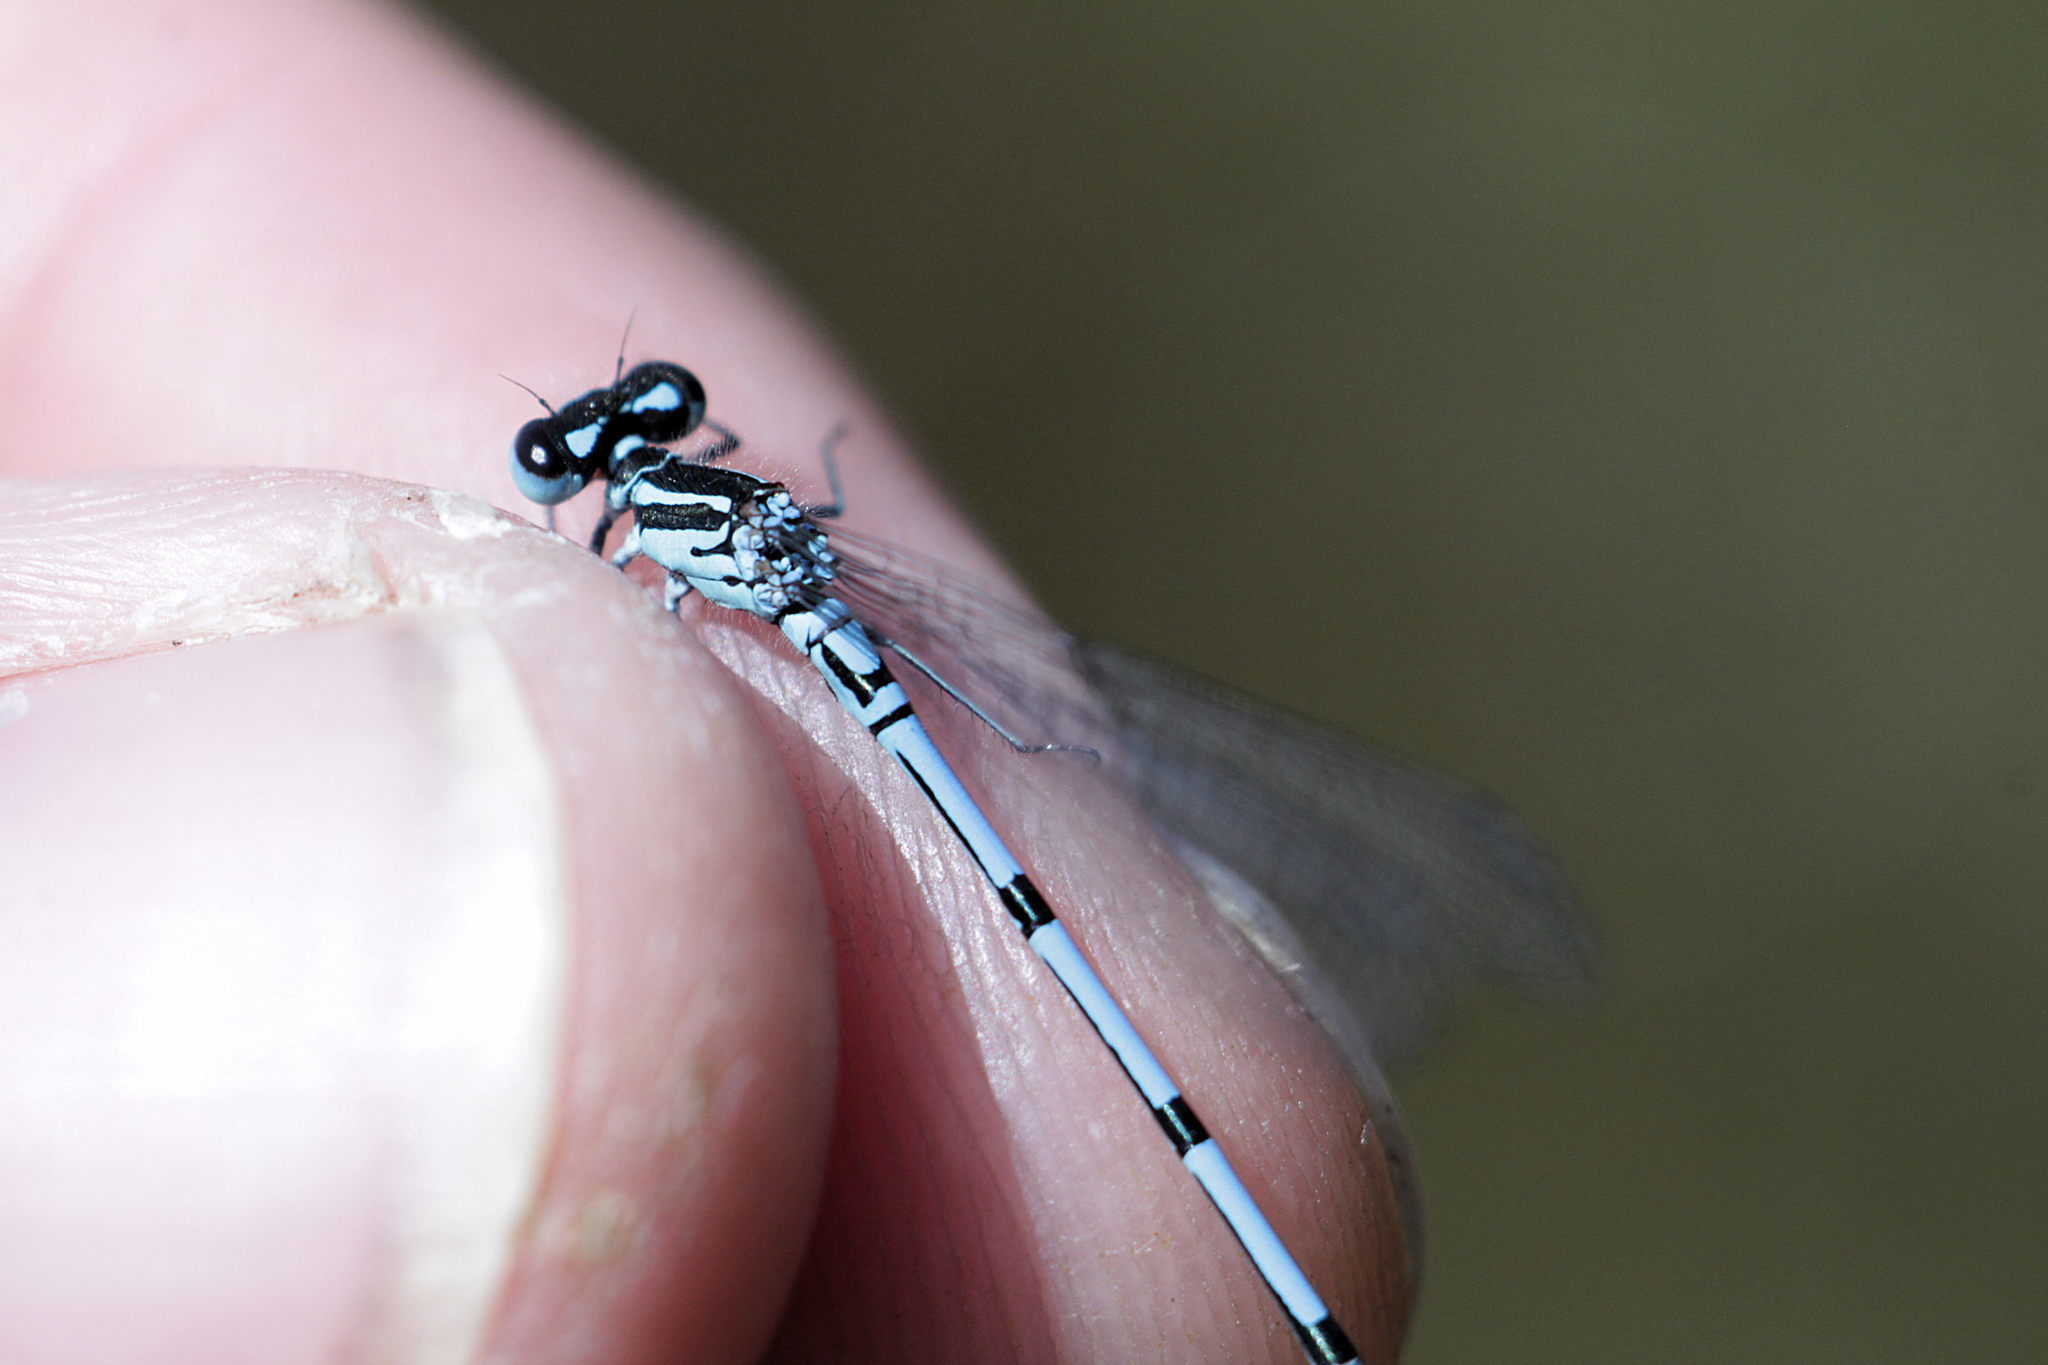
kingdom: Animalia
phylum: Arthropoda
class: Insecta
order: Odonata
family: Coenagrionidae
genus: Coenagrion
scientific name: Coenagrion puella
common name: Azure damselfly
